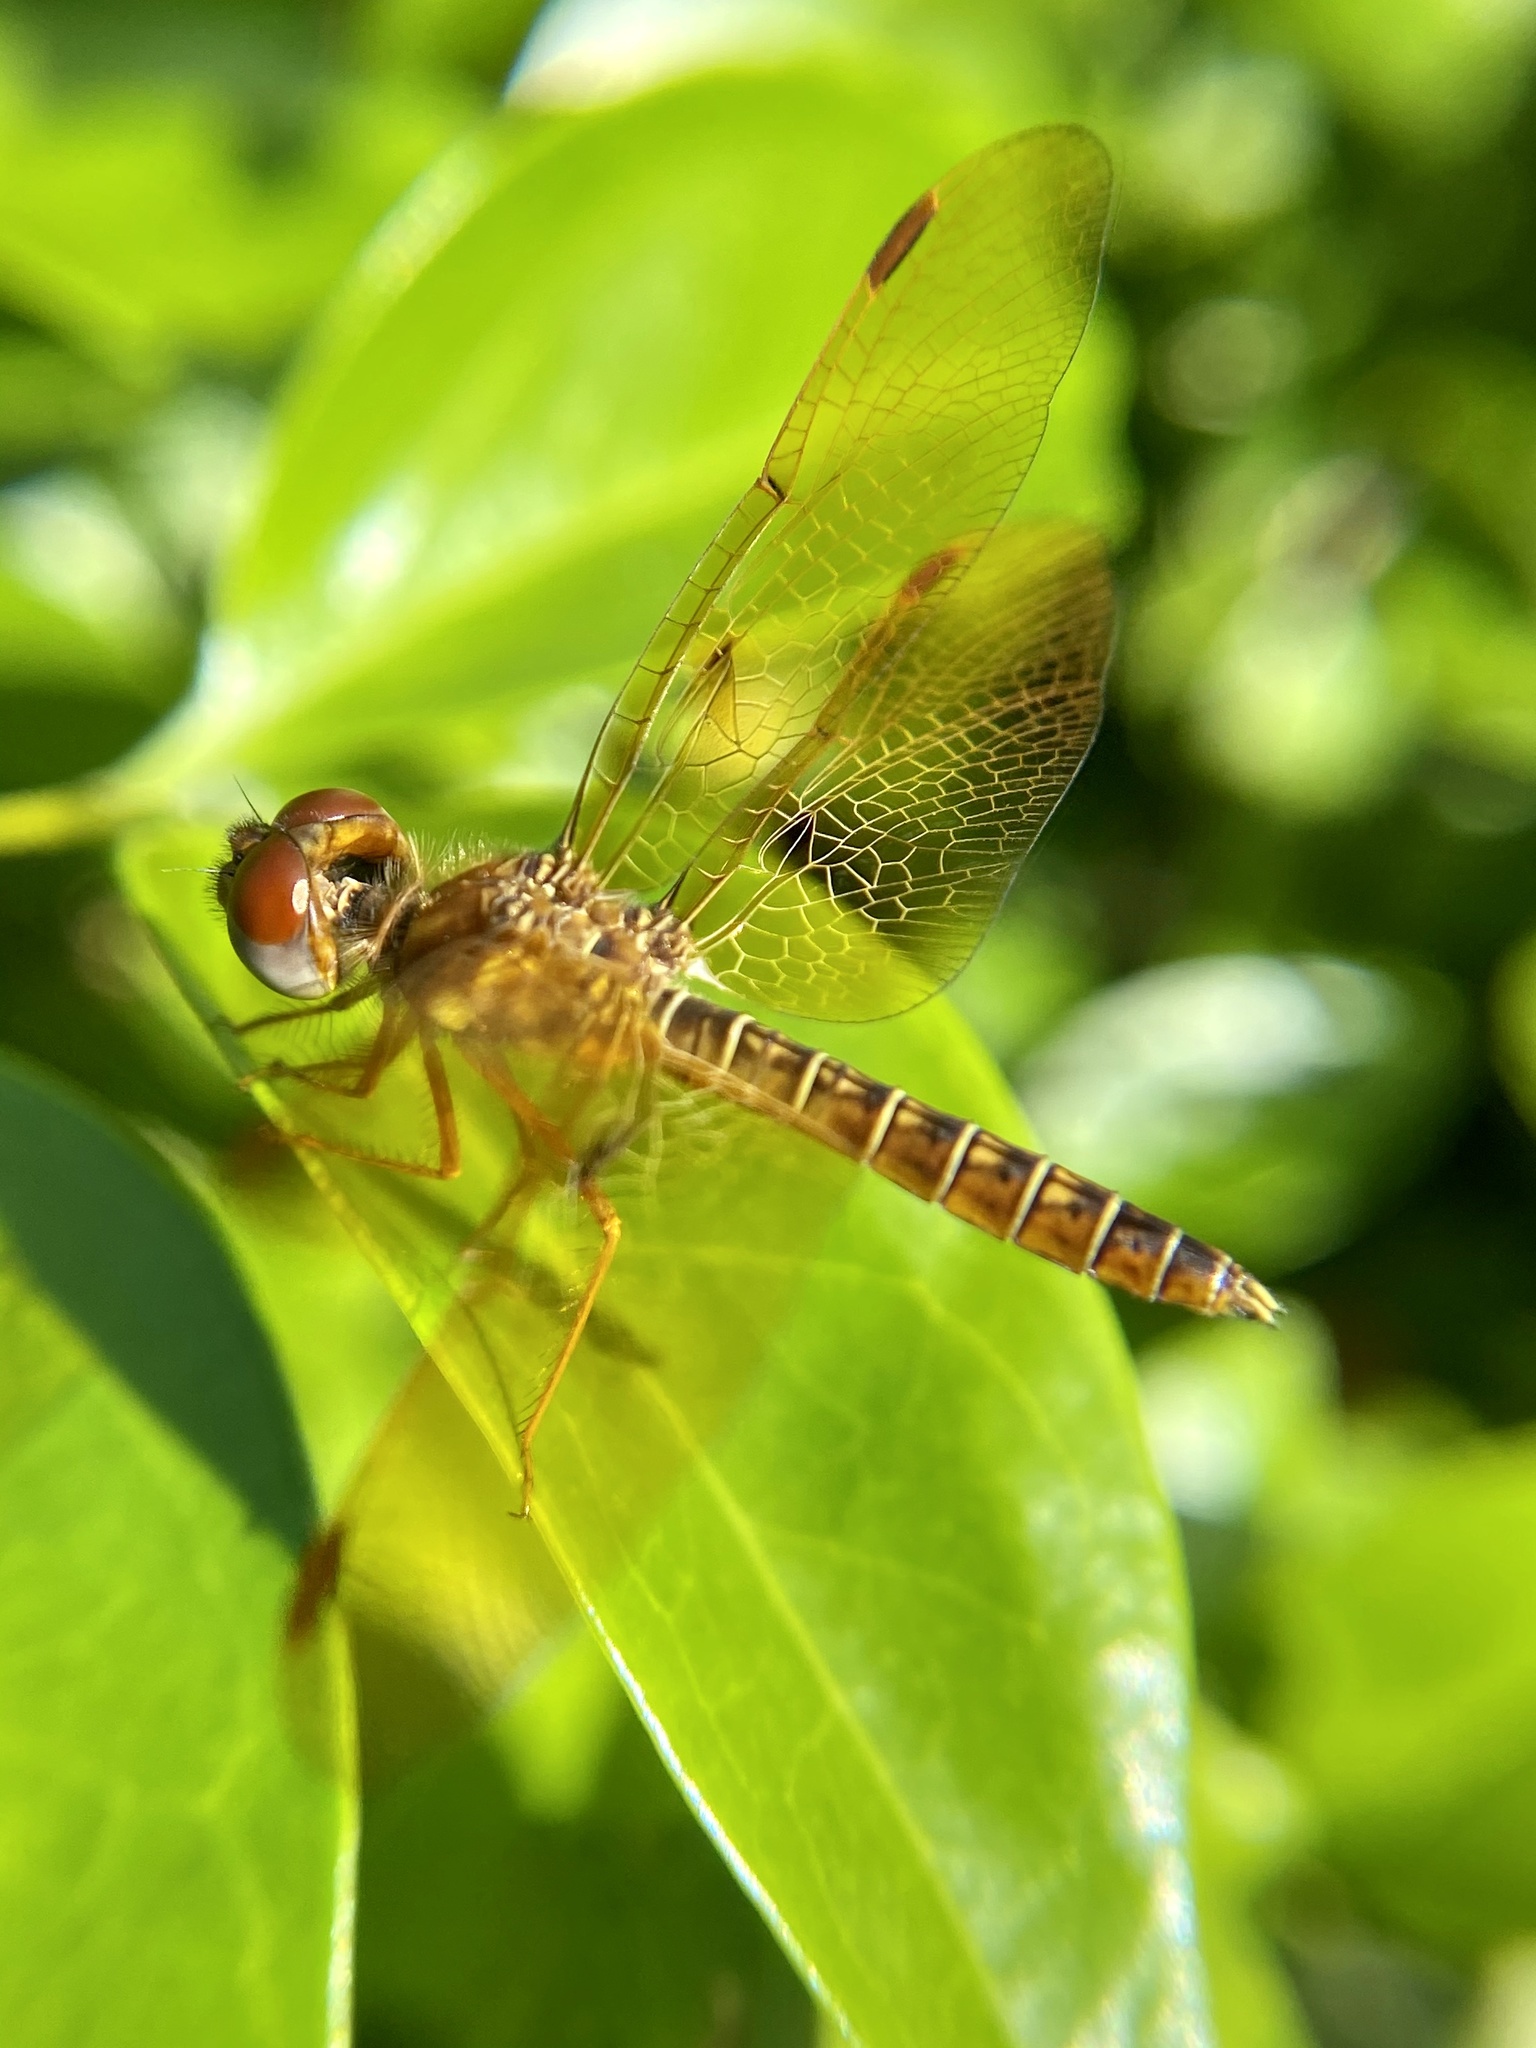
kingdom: Animalia
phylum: Arthropoda
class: Insecta
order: Odonata
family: Libellulidae
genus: Perithemis
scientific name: Perithemis tenera
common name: Eastern amberwing
